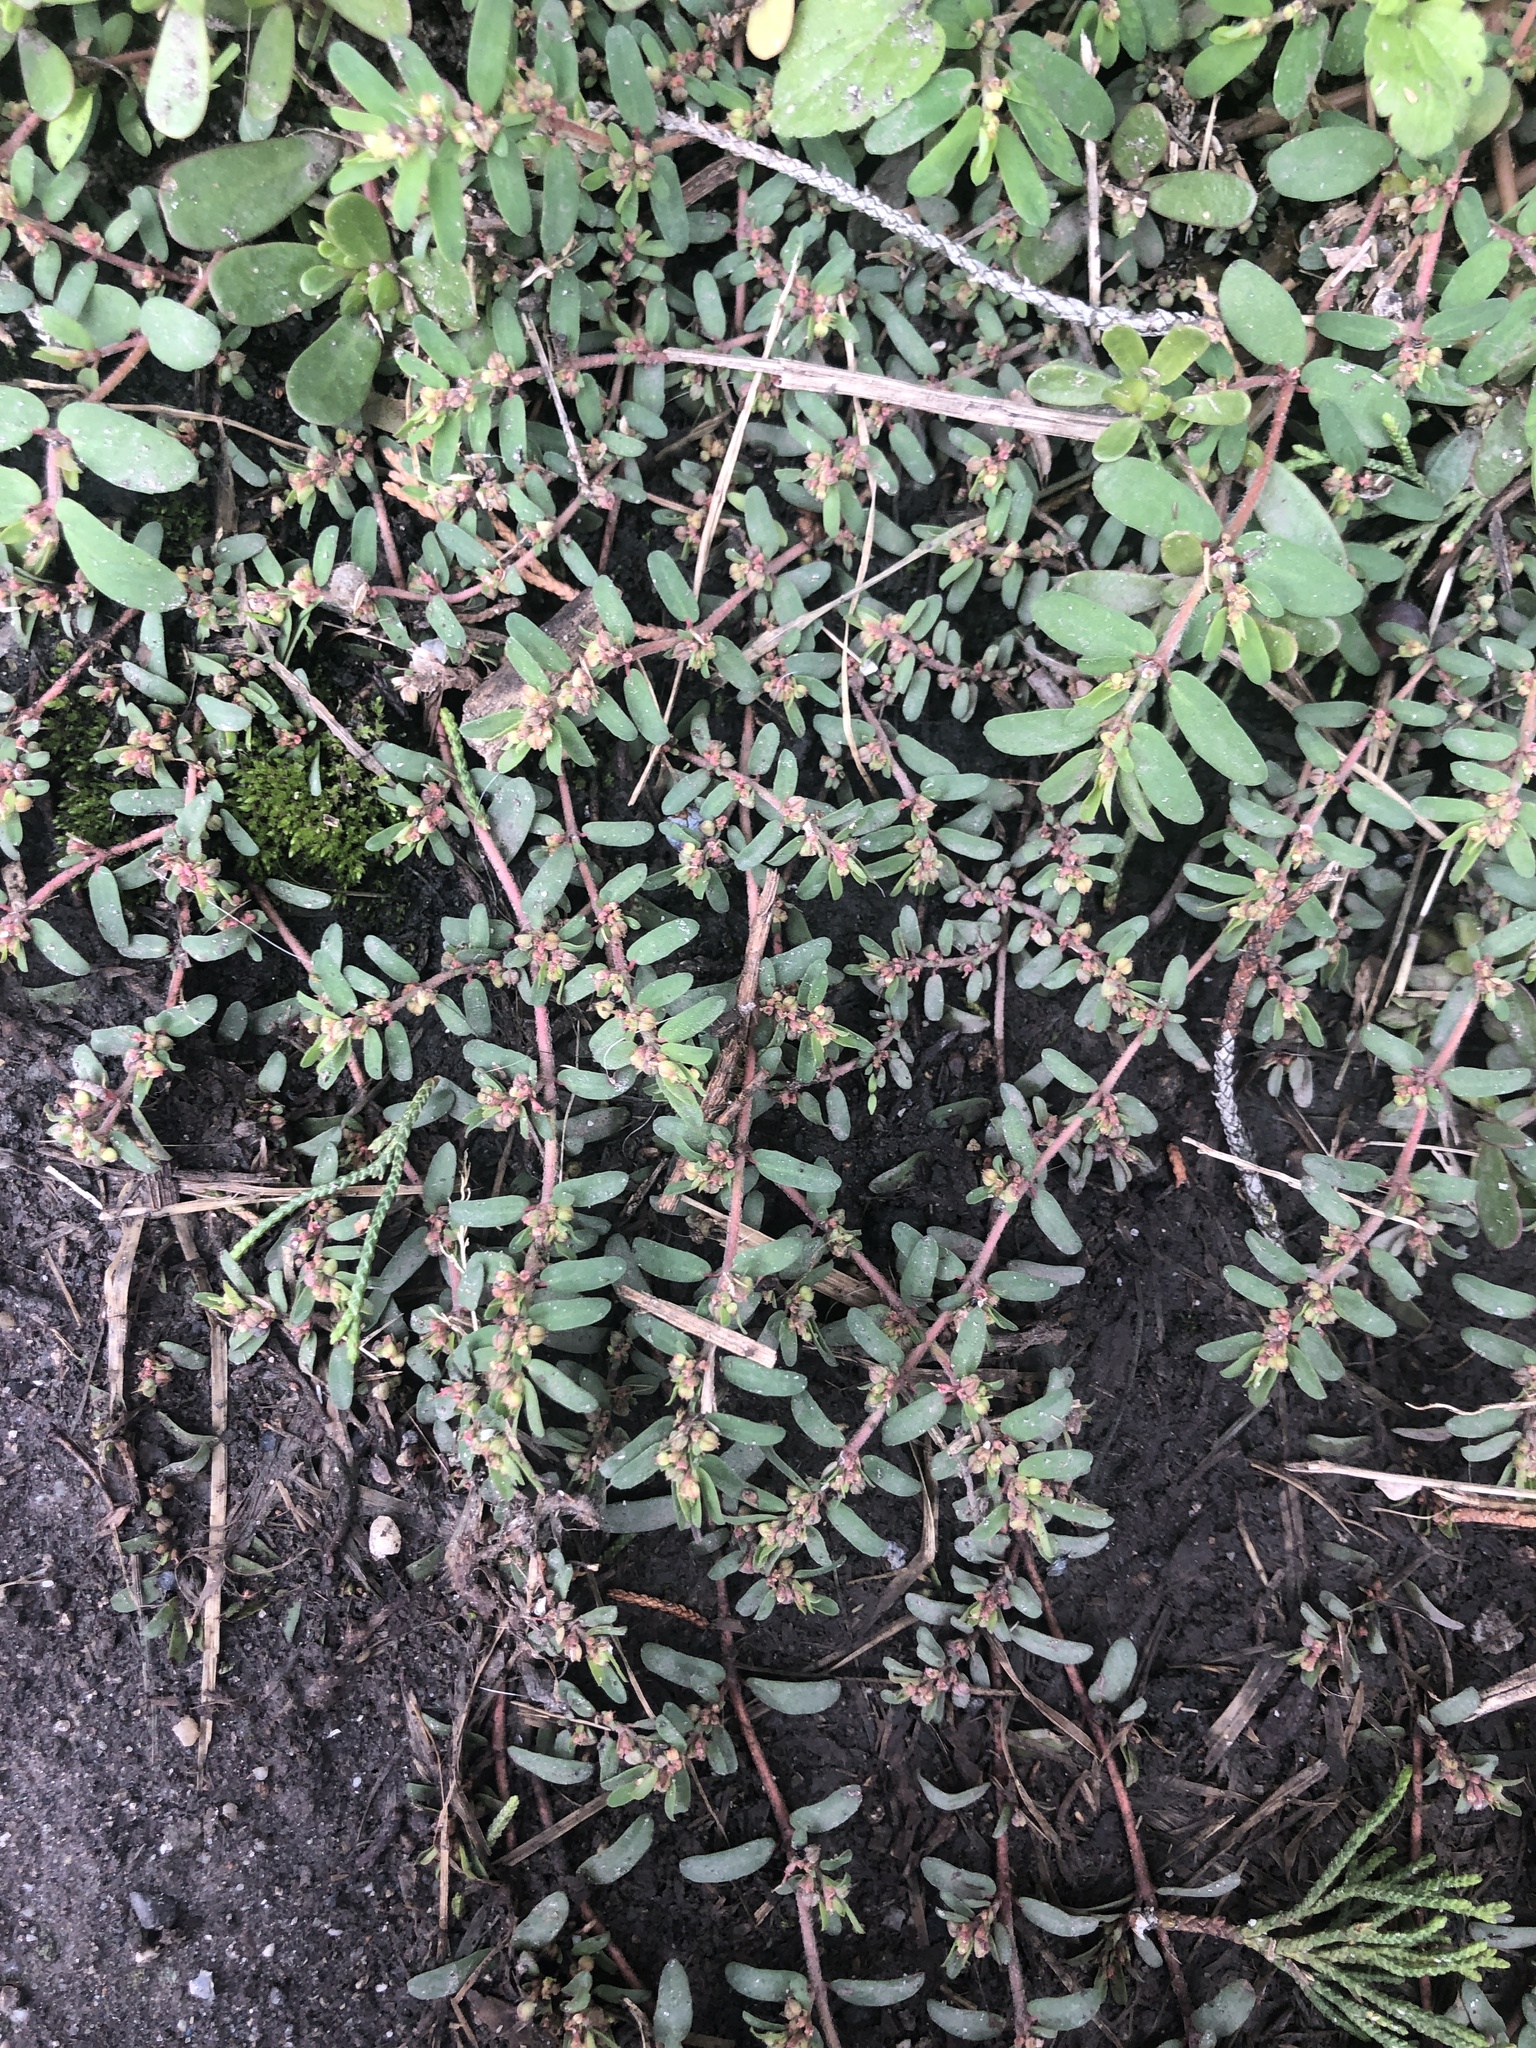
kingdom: Plantae
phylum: Tracheophyta
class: Magnoliopsida
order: Malpighiales
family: Euphorbiaceae
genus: Euphorbia
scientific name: Euphorbia maculata
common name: Spotted spurge
